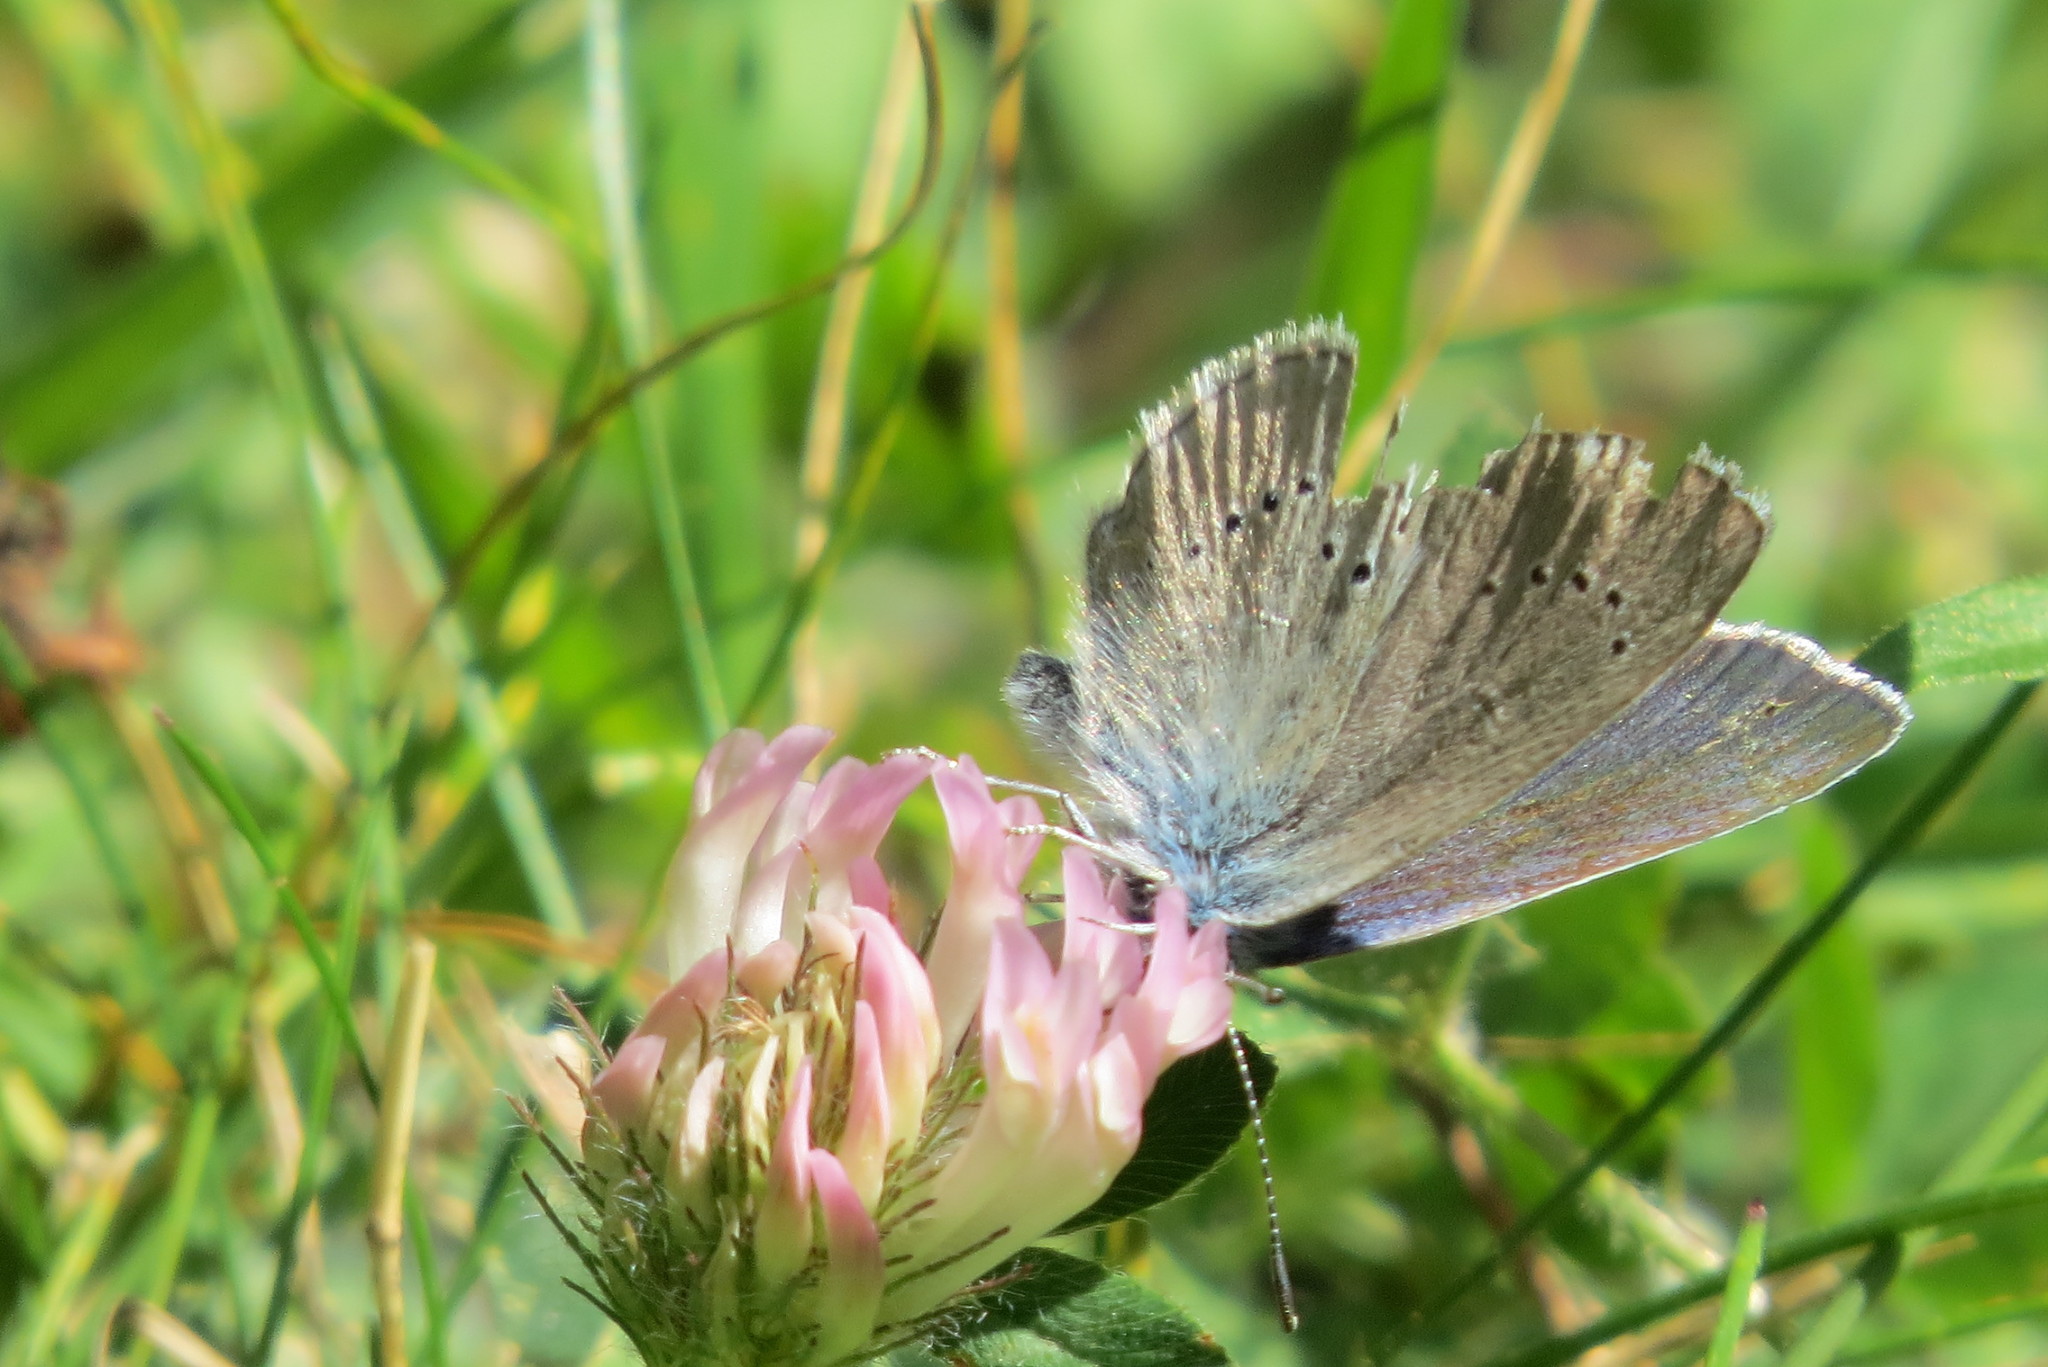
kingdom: Animalia
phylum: Arthropoda
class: Insecta
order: Lepidoptera
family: Lycaenidae
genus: Cyaniris
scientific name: Cyaniris semiargus
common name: Mazarine blue
